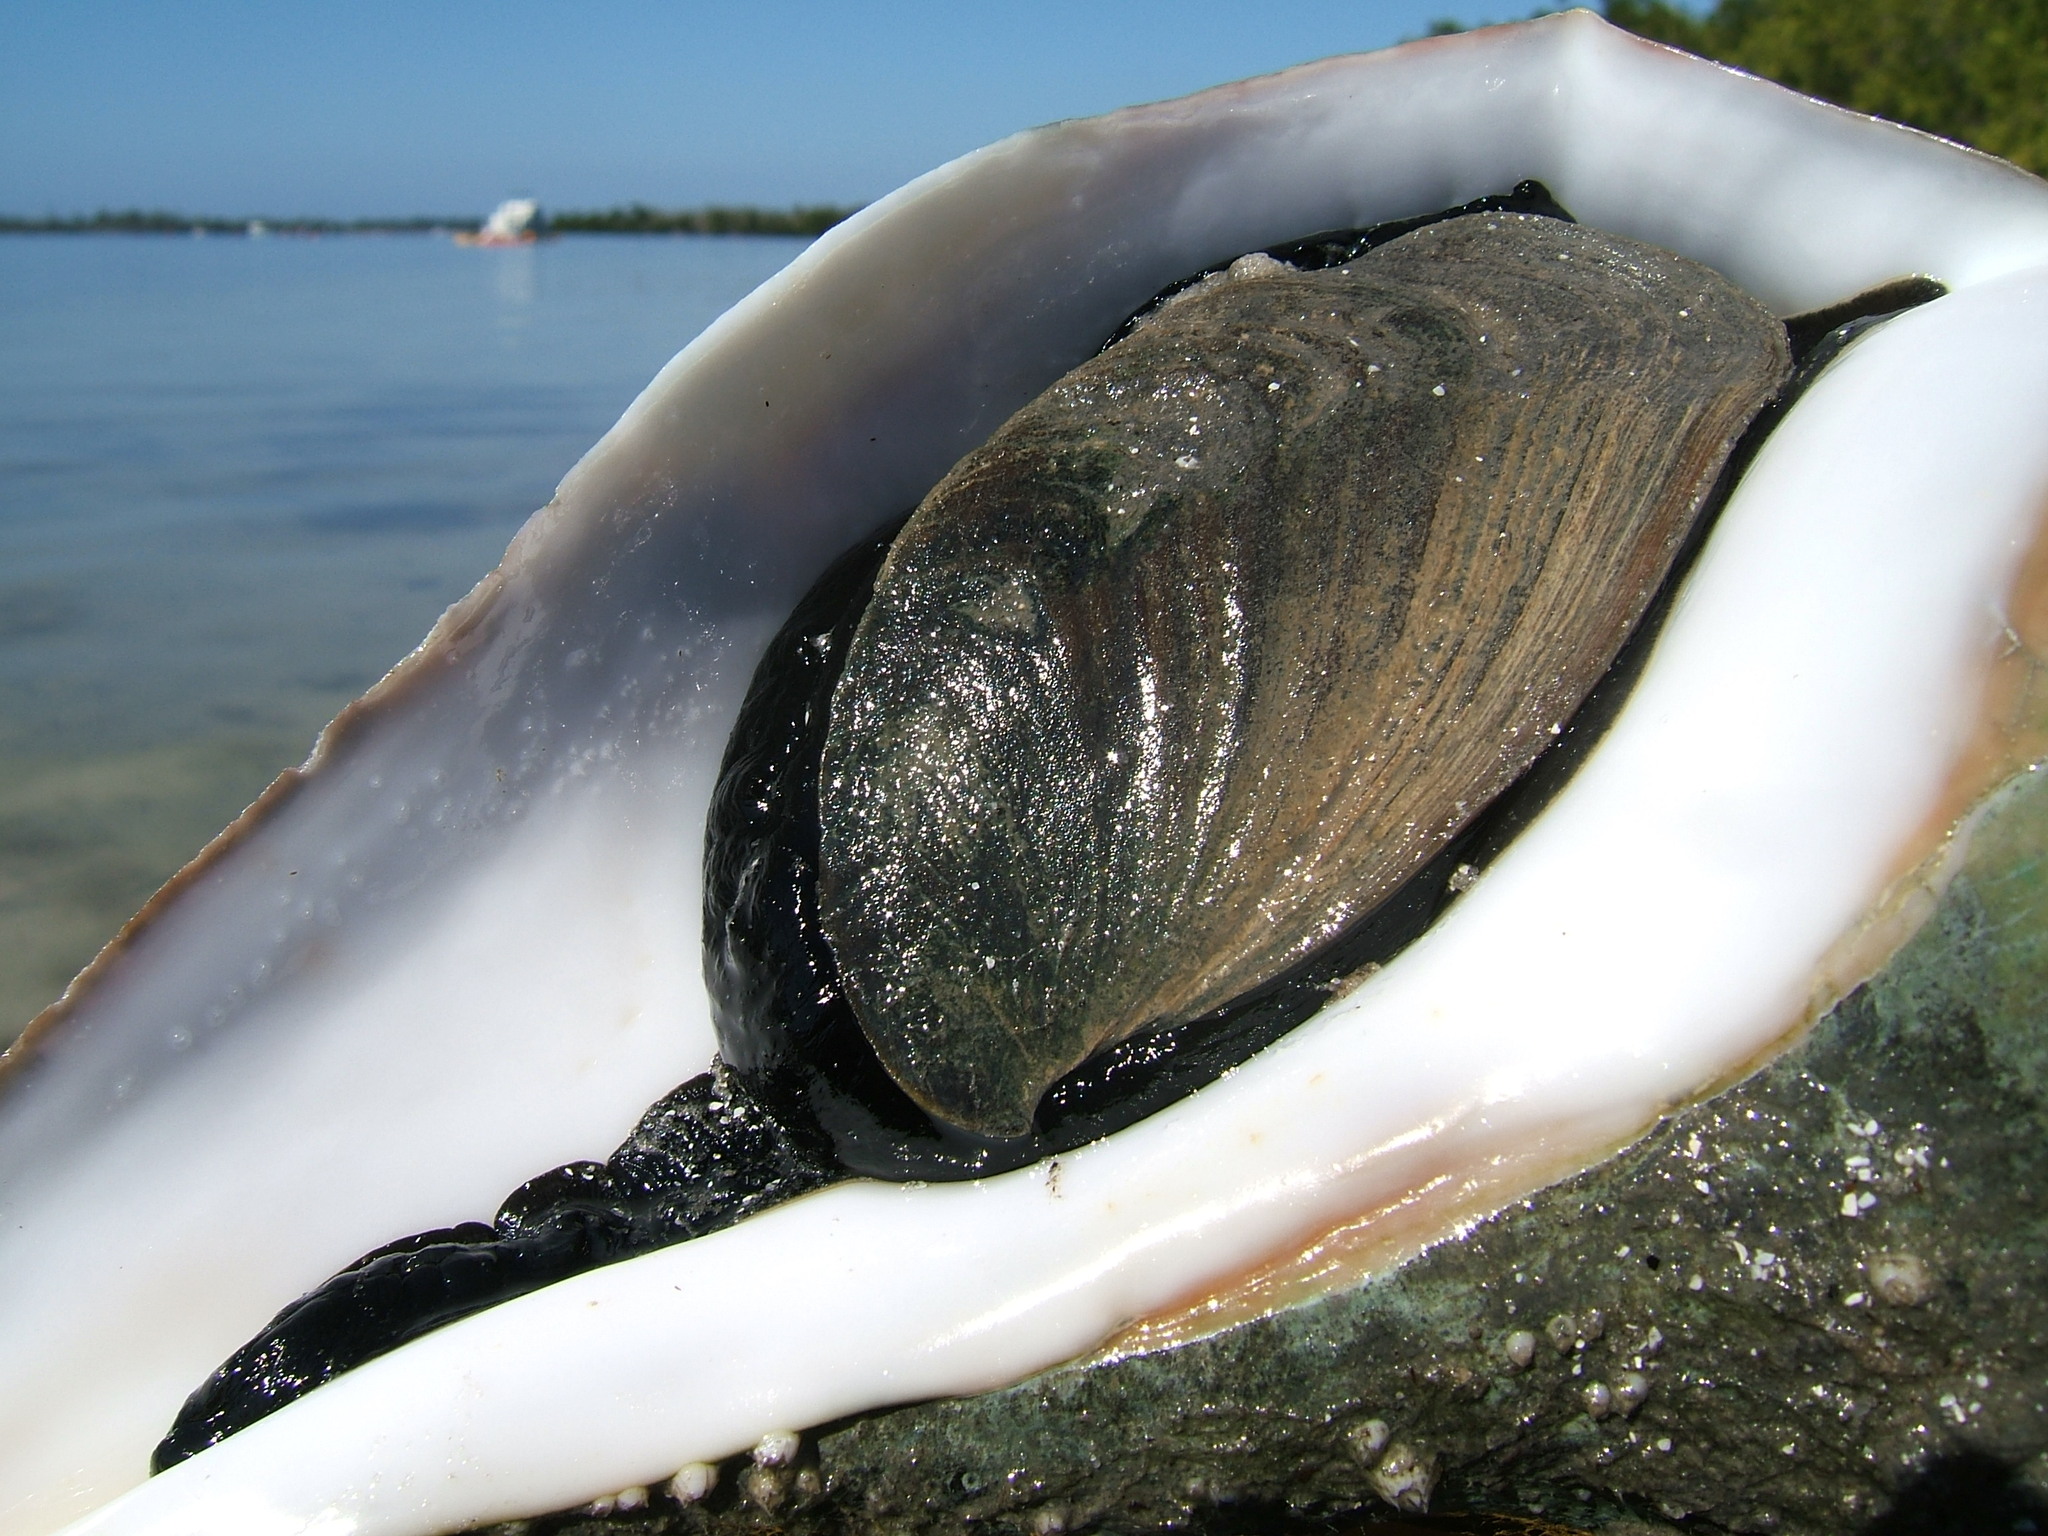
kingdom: Animalia
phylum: Mollusca
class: Gastropoda
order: Neogastropoda
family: Busyconidae
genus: Sinistrofulgur
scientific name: Sinistrofulgur sinistrum
